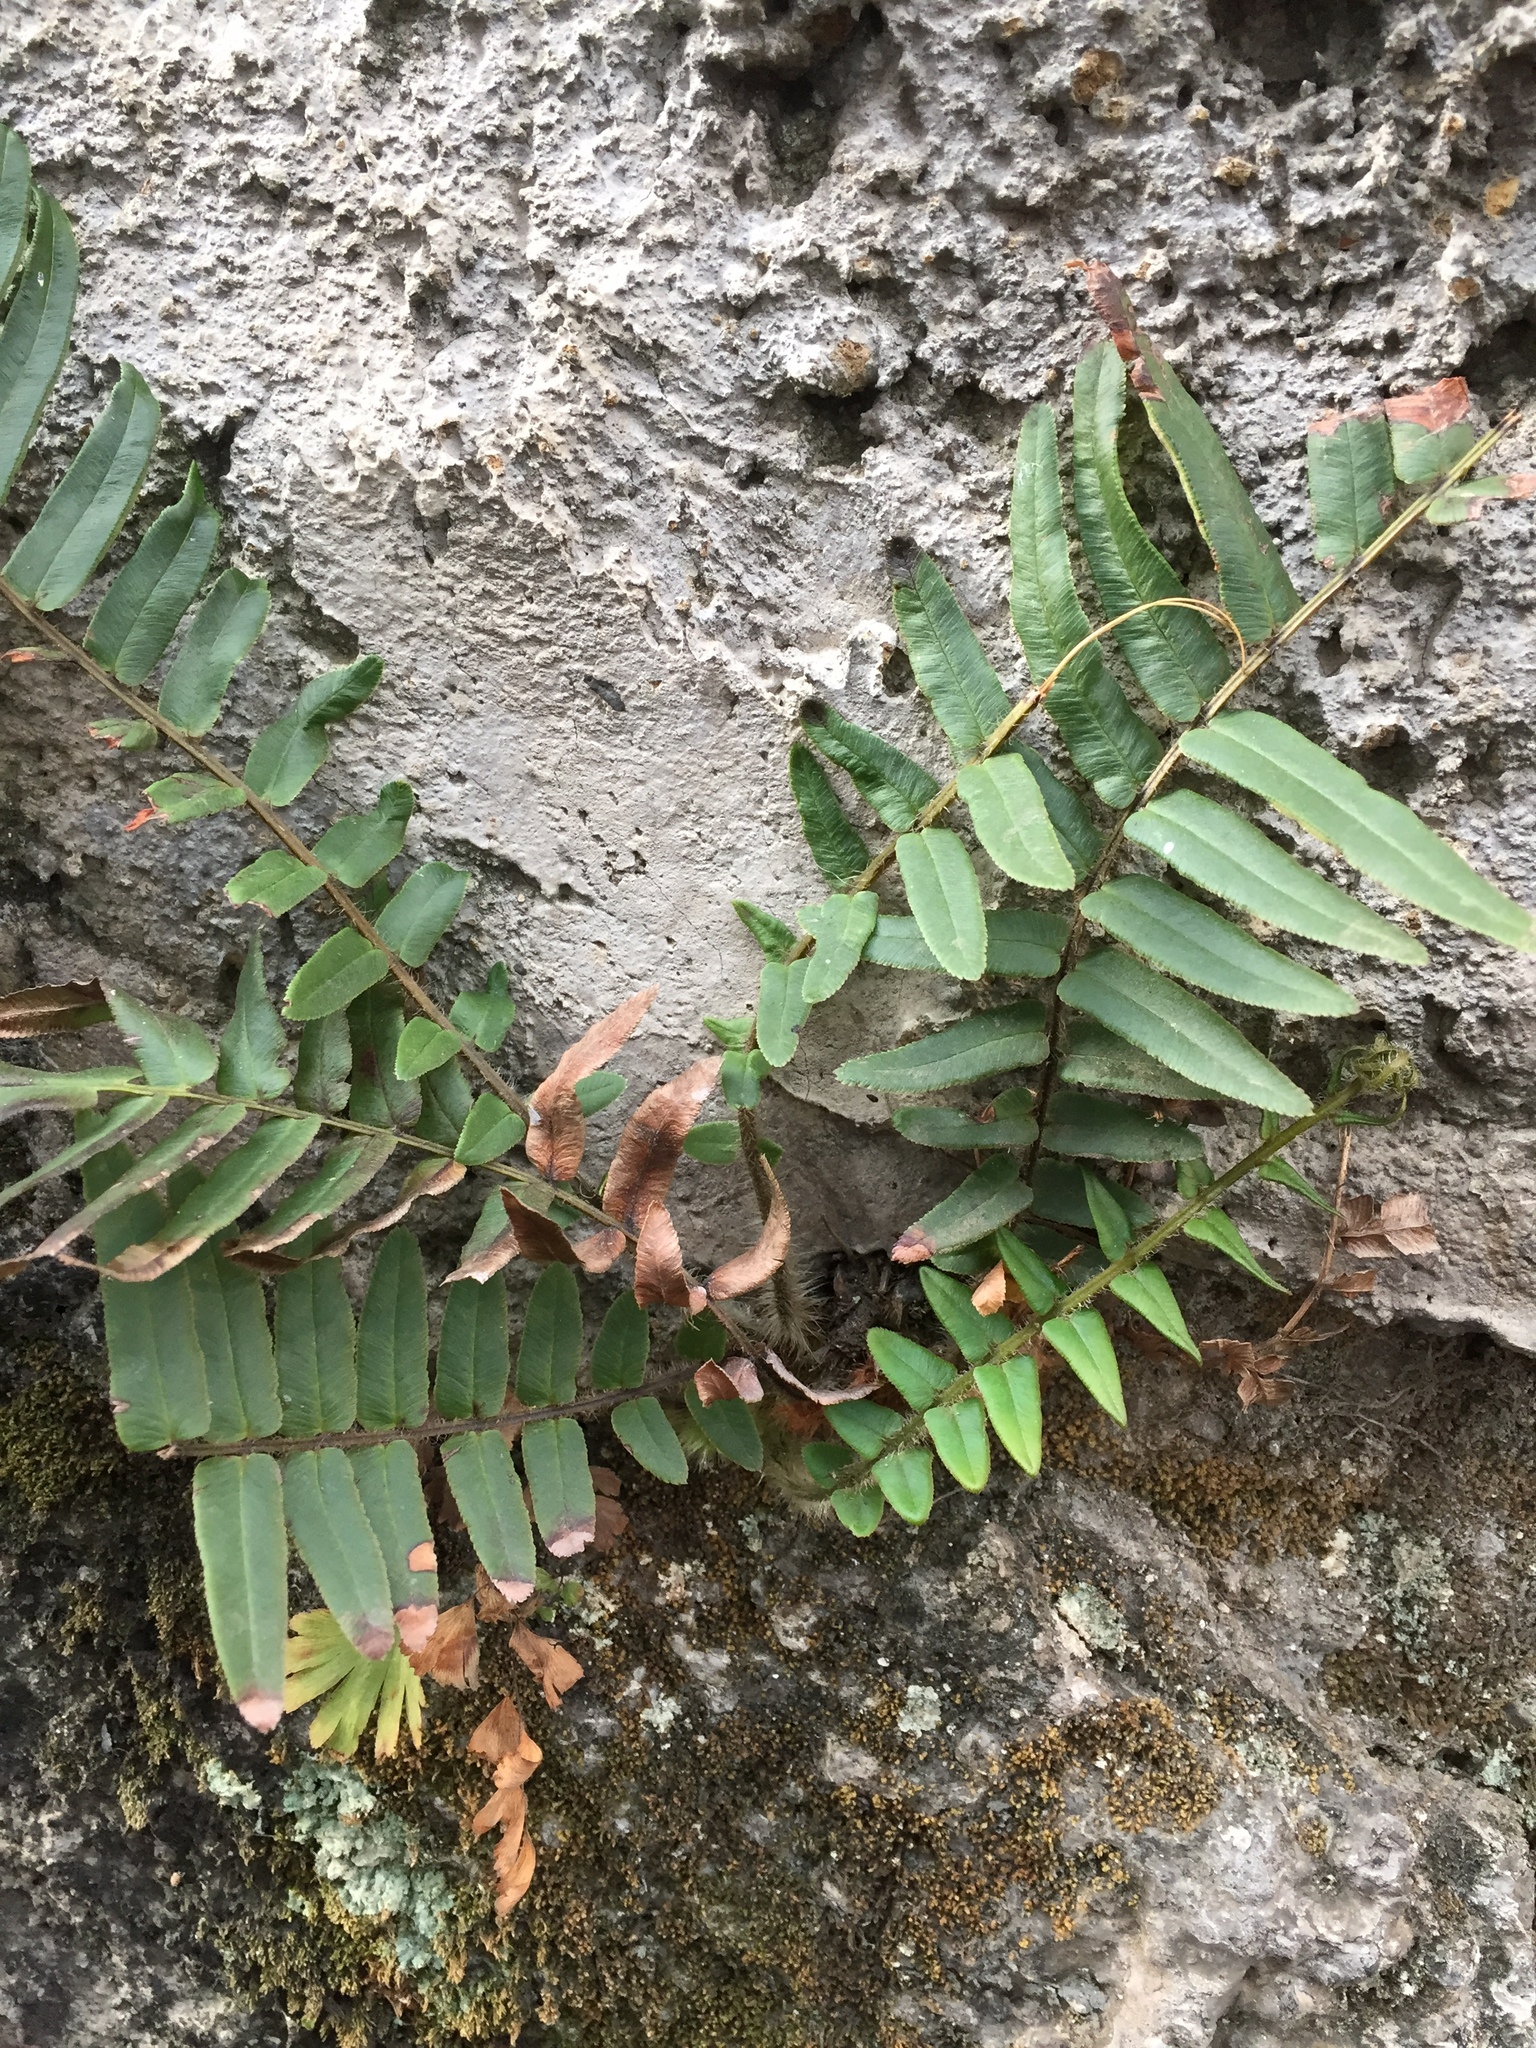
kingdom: Plantae
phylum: Tracheophyta
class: Polypodiopsida
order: Polypodiales
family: Pteridaceae
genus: Pteris
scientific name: Pteris vittata
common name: Ladder brake
